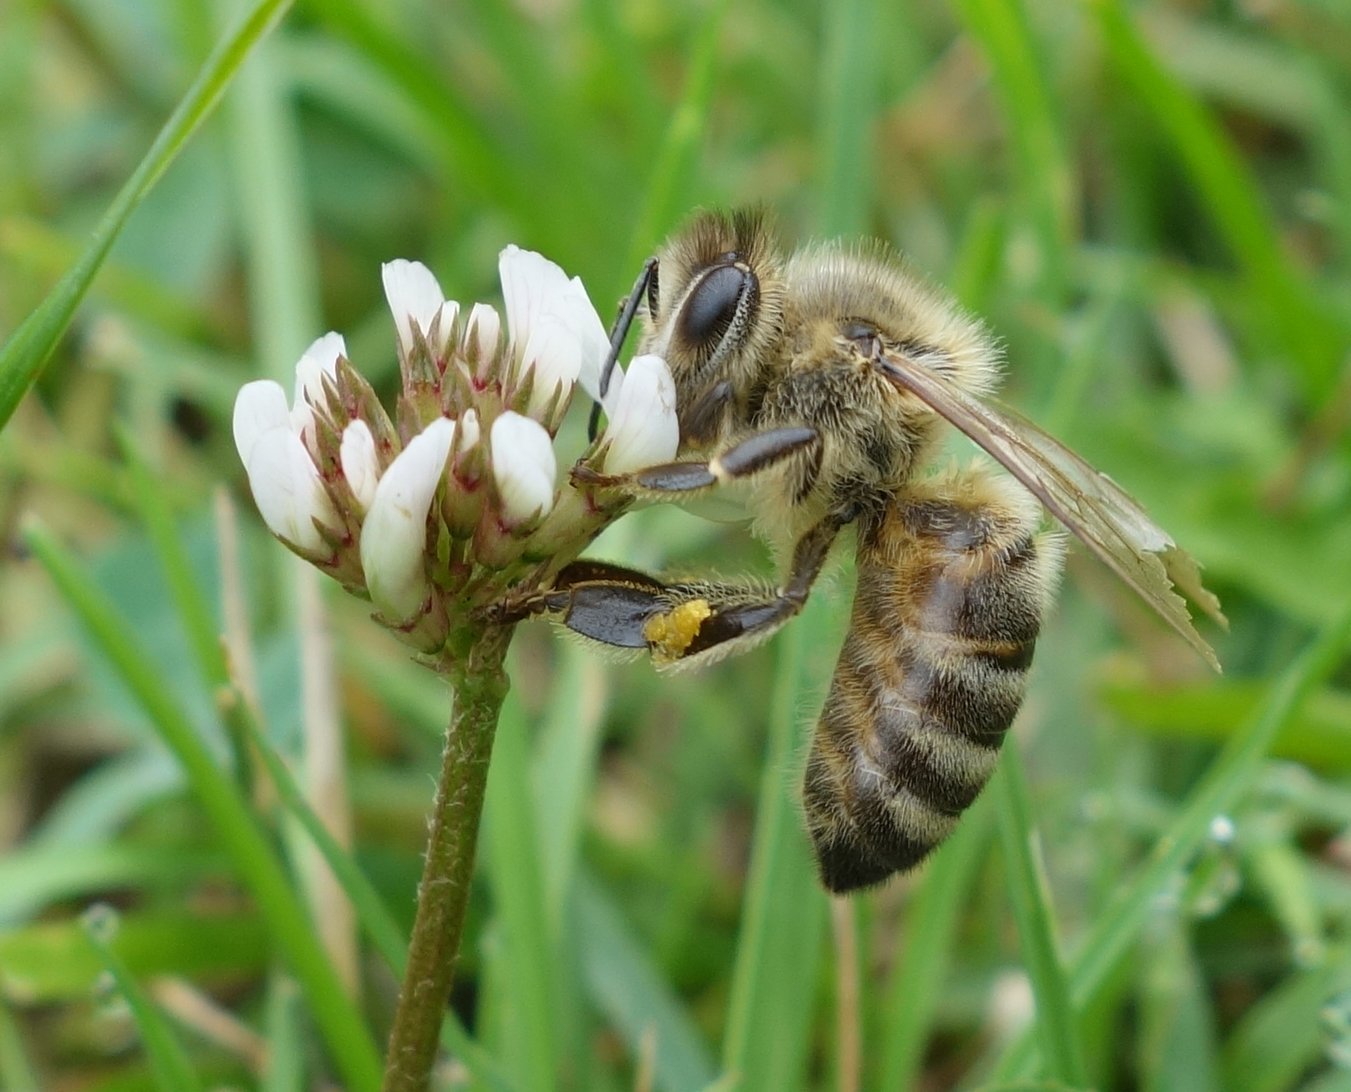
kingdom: Animalia
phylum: Arthropoda
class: Insecta
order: Hymenoptera
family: Apidae
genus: Apis
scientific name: Apis mellifera
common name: Honey bee
